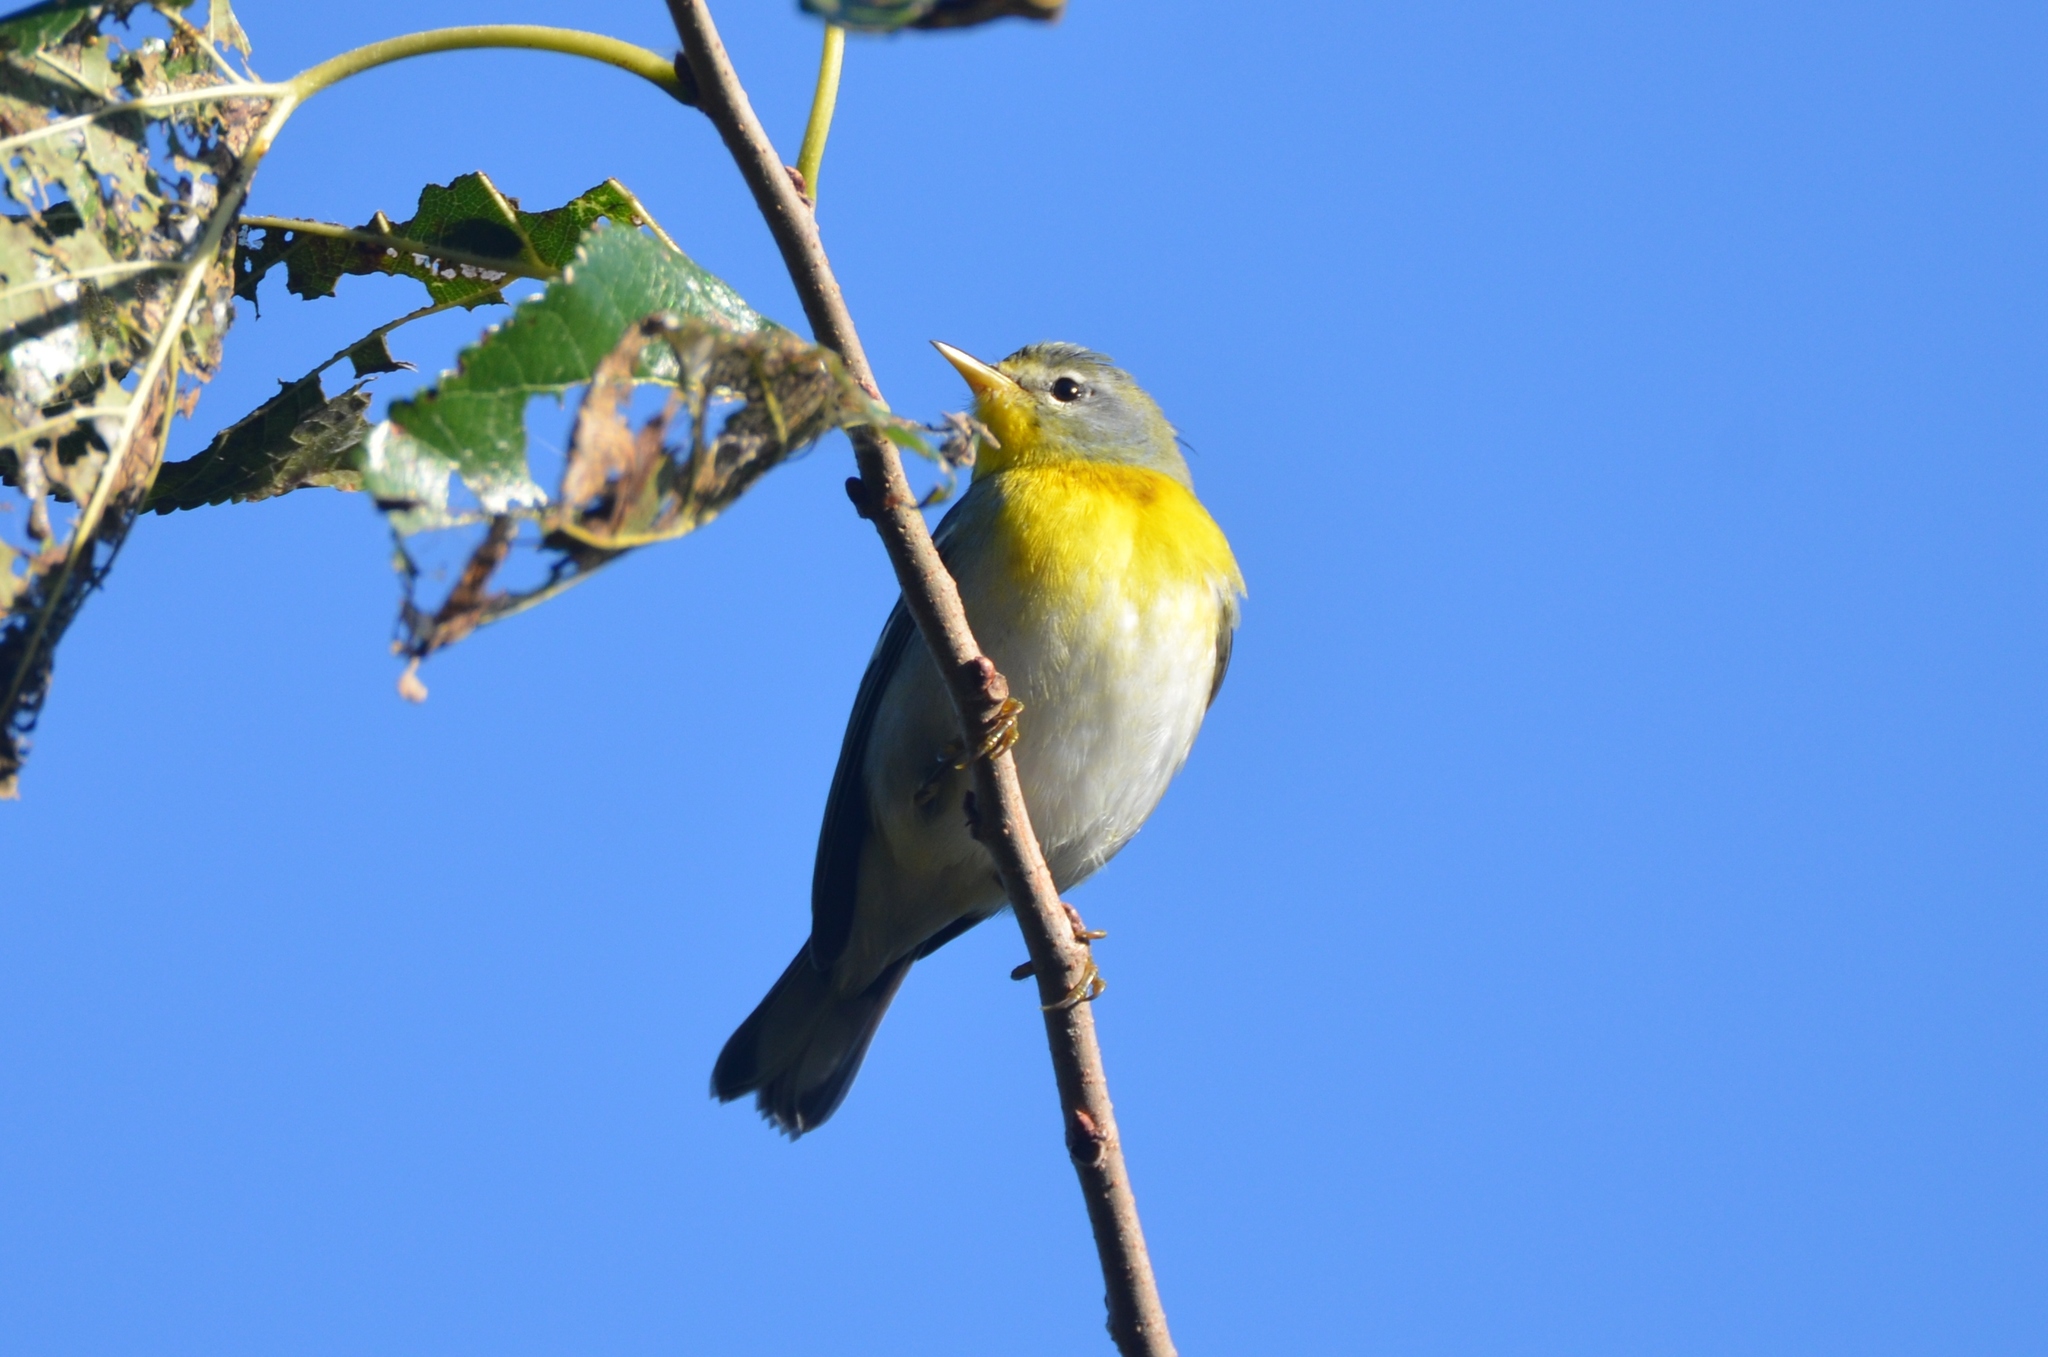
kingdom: Animalia
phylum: Chordata
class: Aves
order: Passeriformes
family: Parulidae
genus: Setophaga
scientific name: Setophaga americana
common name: Northern parula
